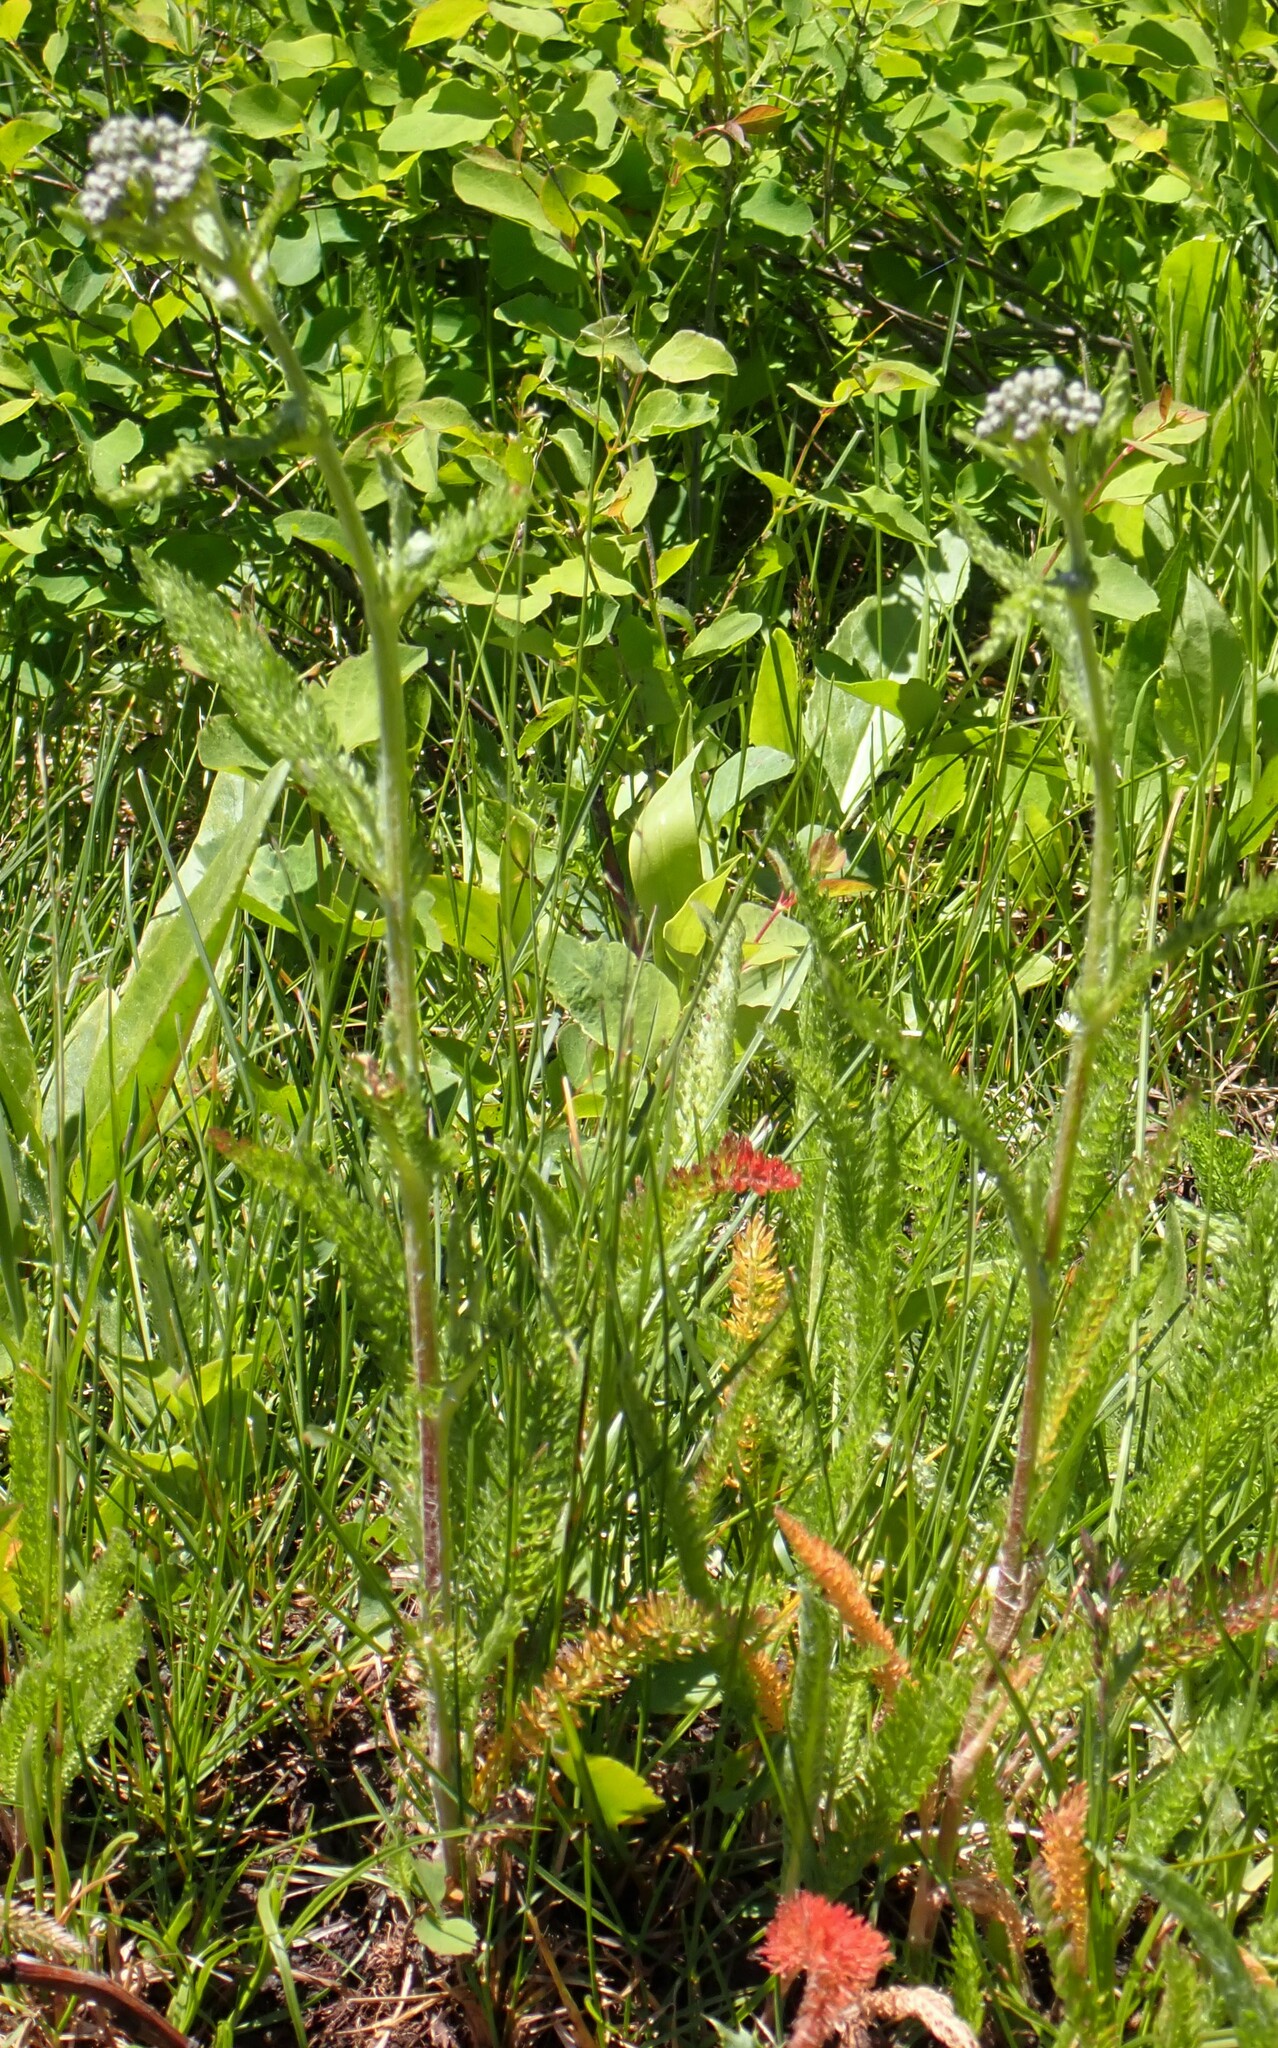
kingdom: Plantae
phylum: Tracheophyta
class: Magnoliopsida
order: Asterales
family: Asteraceae
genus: Achillea
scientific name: Achillea millefolium
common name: Yarrow
